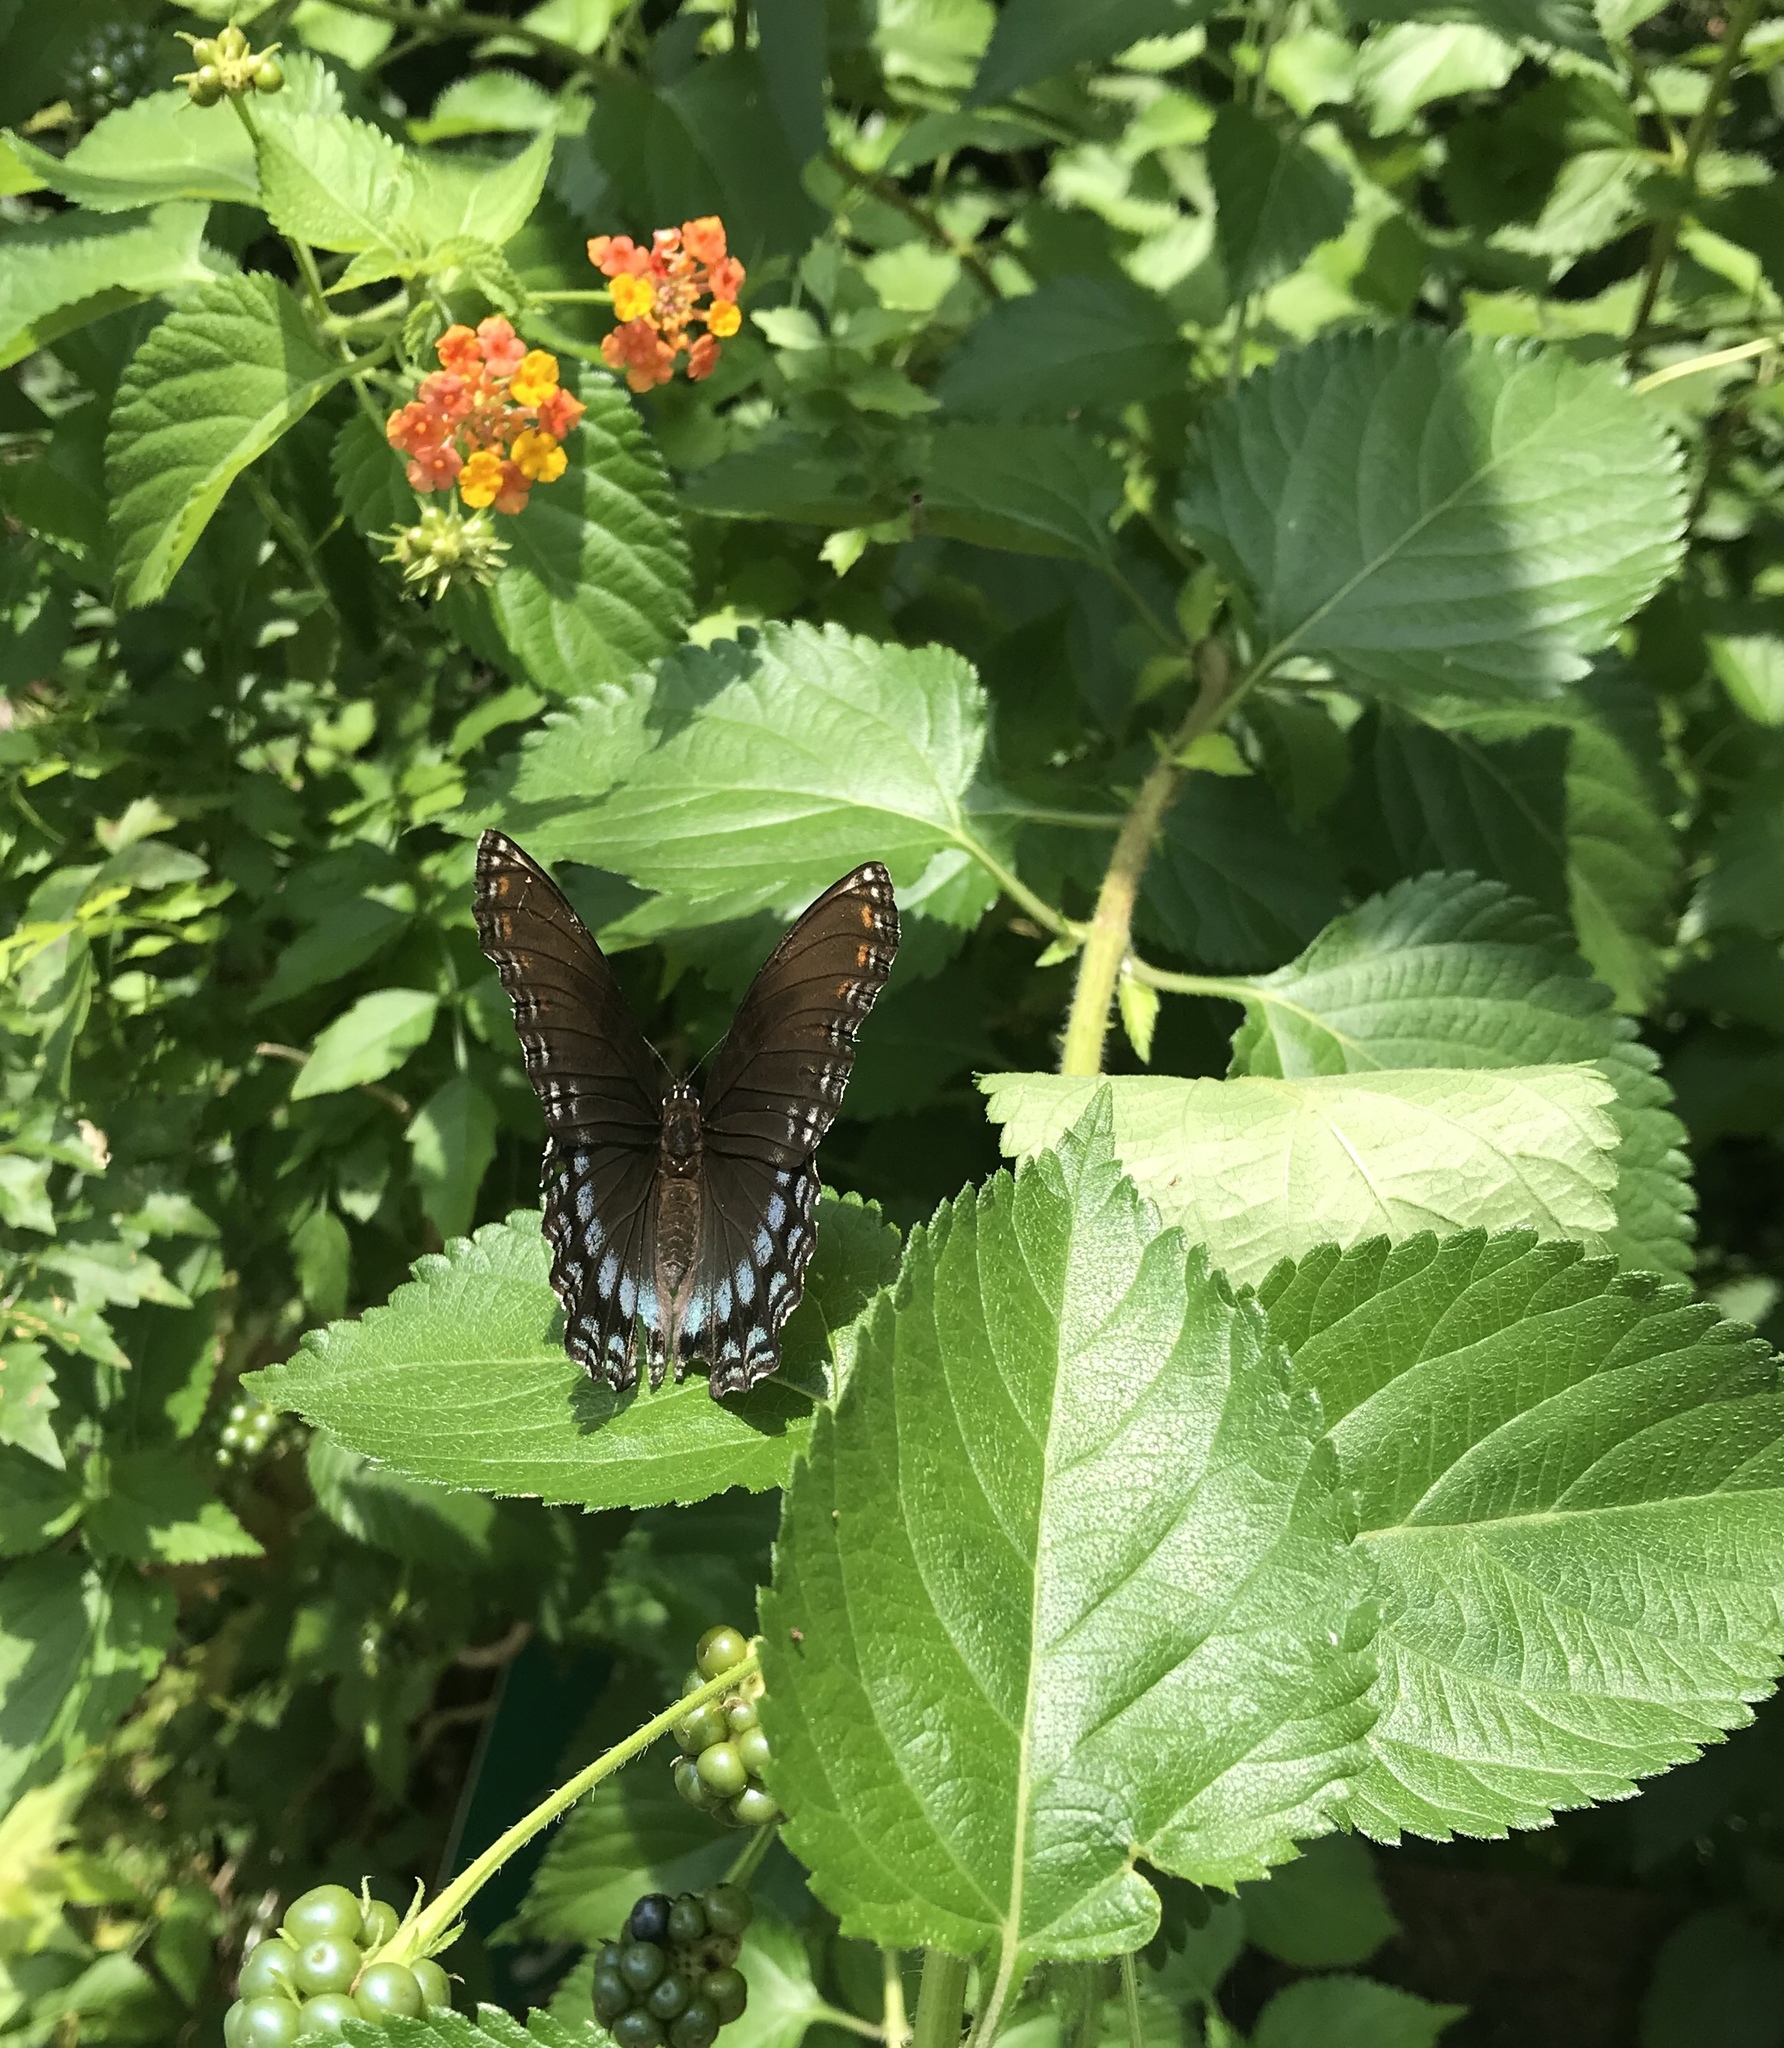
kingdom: Animalia
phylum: Arthropoda
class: Insecta
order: Lepidoptera
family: Nymphalidae
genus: Limenitis
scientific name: Limenitis arthemis
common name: Red-spotted admiral
